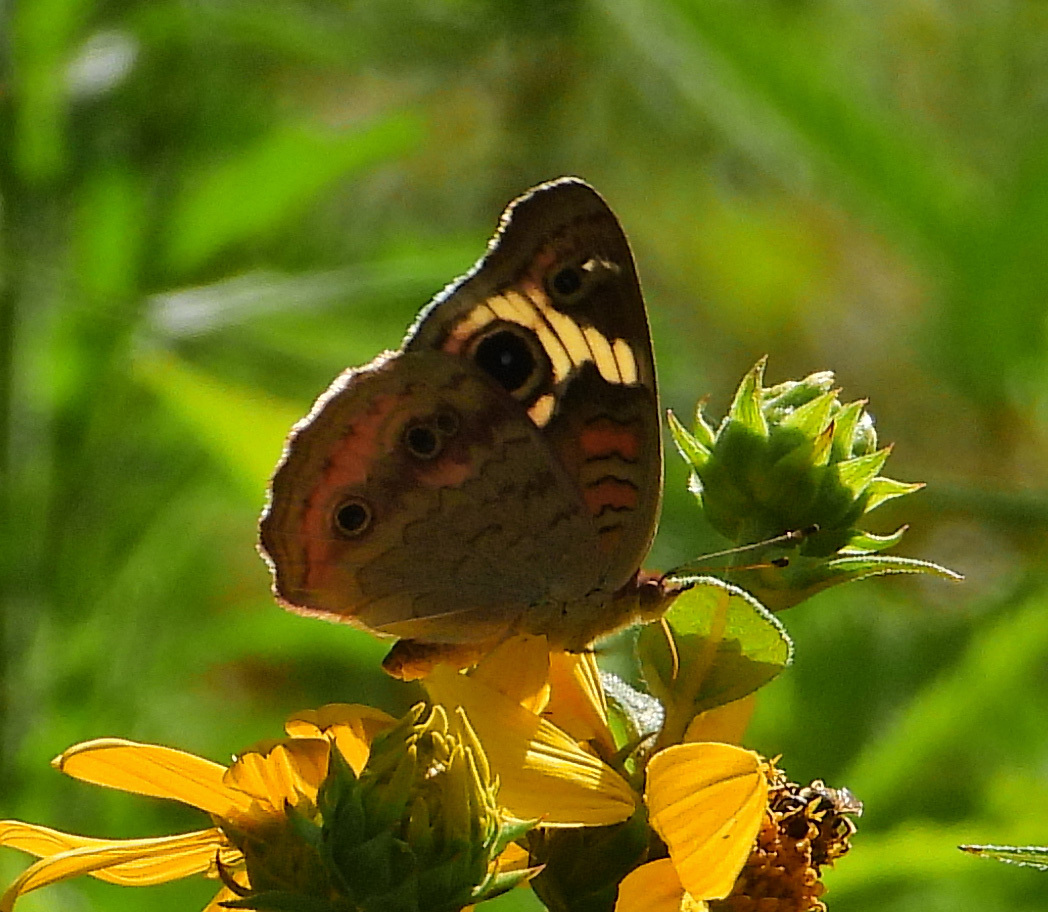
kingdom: Animalia
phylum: Arthropoda
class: Insecta
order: Lepidoptera
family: Nymphalidae
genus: Junonia
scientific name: Junonia coenia
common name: Common buckeye
